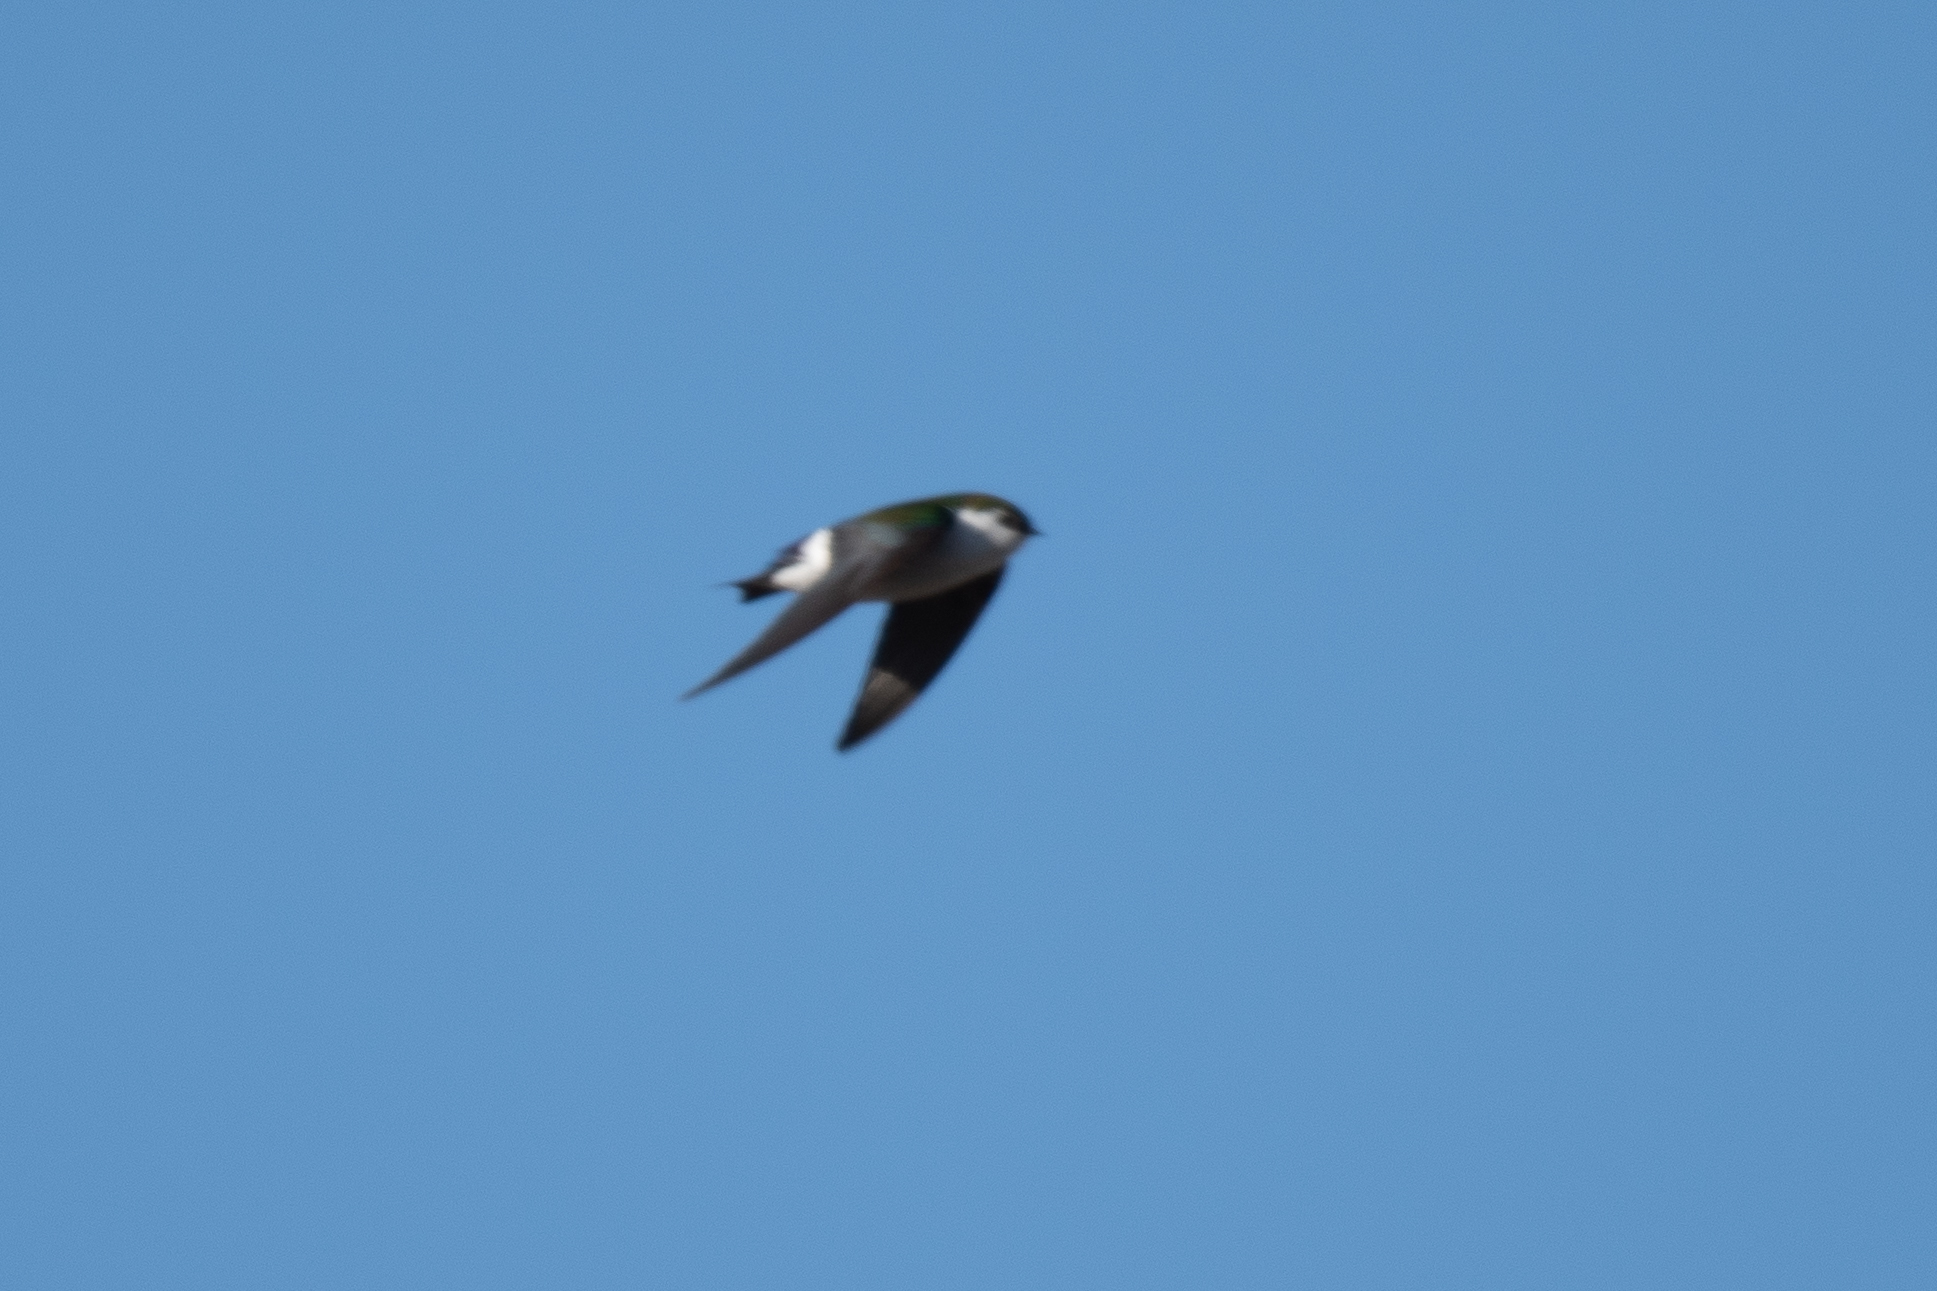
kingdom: Animalia
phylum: Chordata
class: Aves
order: Passeriformes
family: Hirundinidae
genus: Tachycineta
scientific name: Tachycineta thalassina
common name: Violet-green swallow
